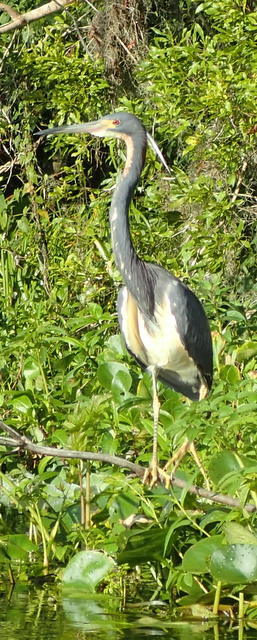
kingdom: Animalia
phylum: Chordata
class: Aves
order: Pelecaniformes
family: Ardeidae
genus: Egretta
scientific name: Egretta tricolor
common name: Tricolored heron
